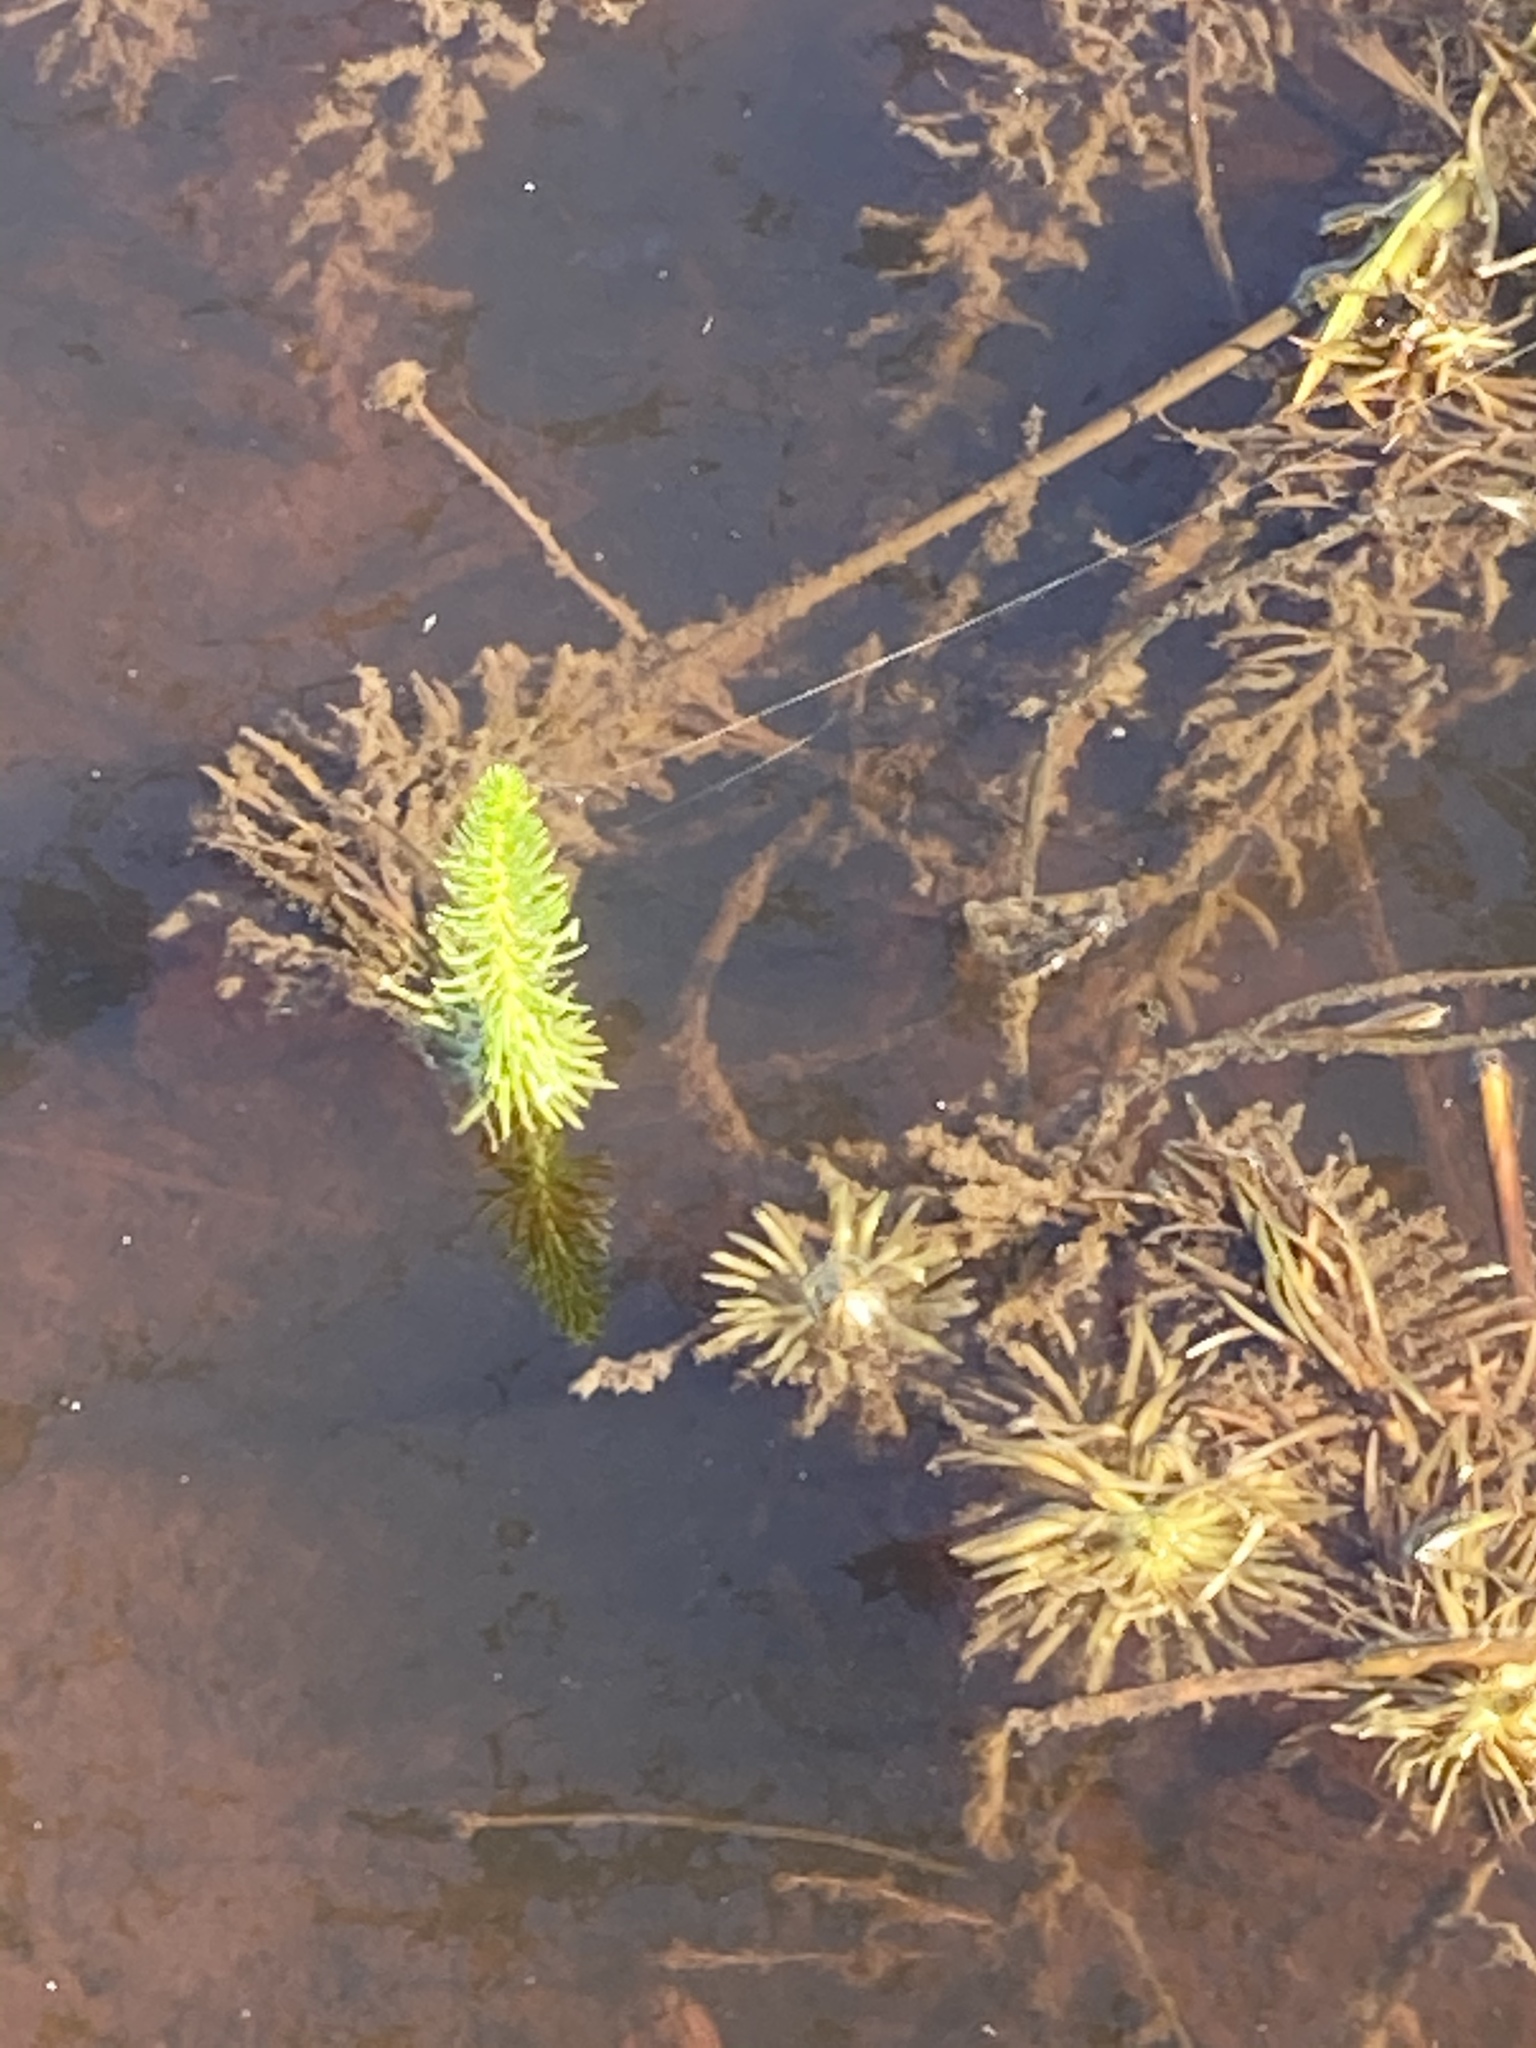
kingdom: Plantae
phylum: Tracheophyta
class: Magnoliopsida
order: Lamiales
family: Plantaginaceae
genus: Hippuris
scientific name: Hippuris vulgaris
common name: Mare's-tail
